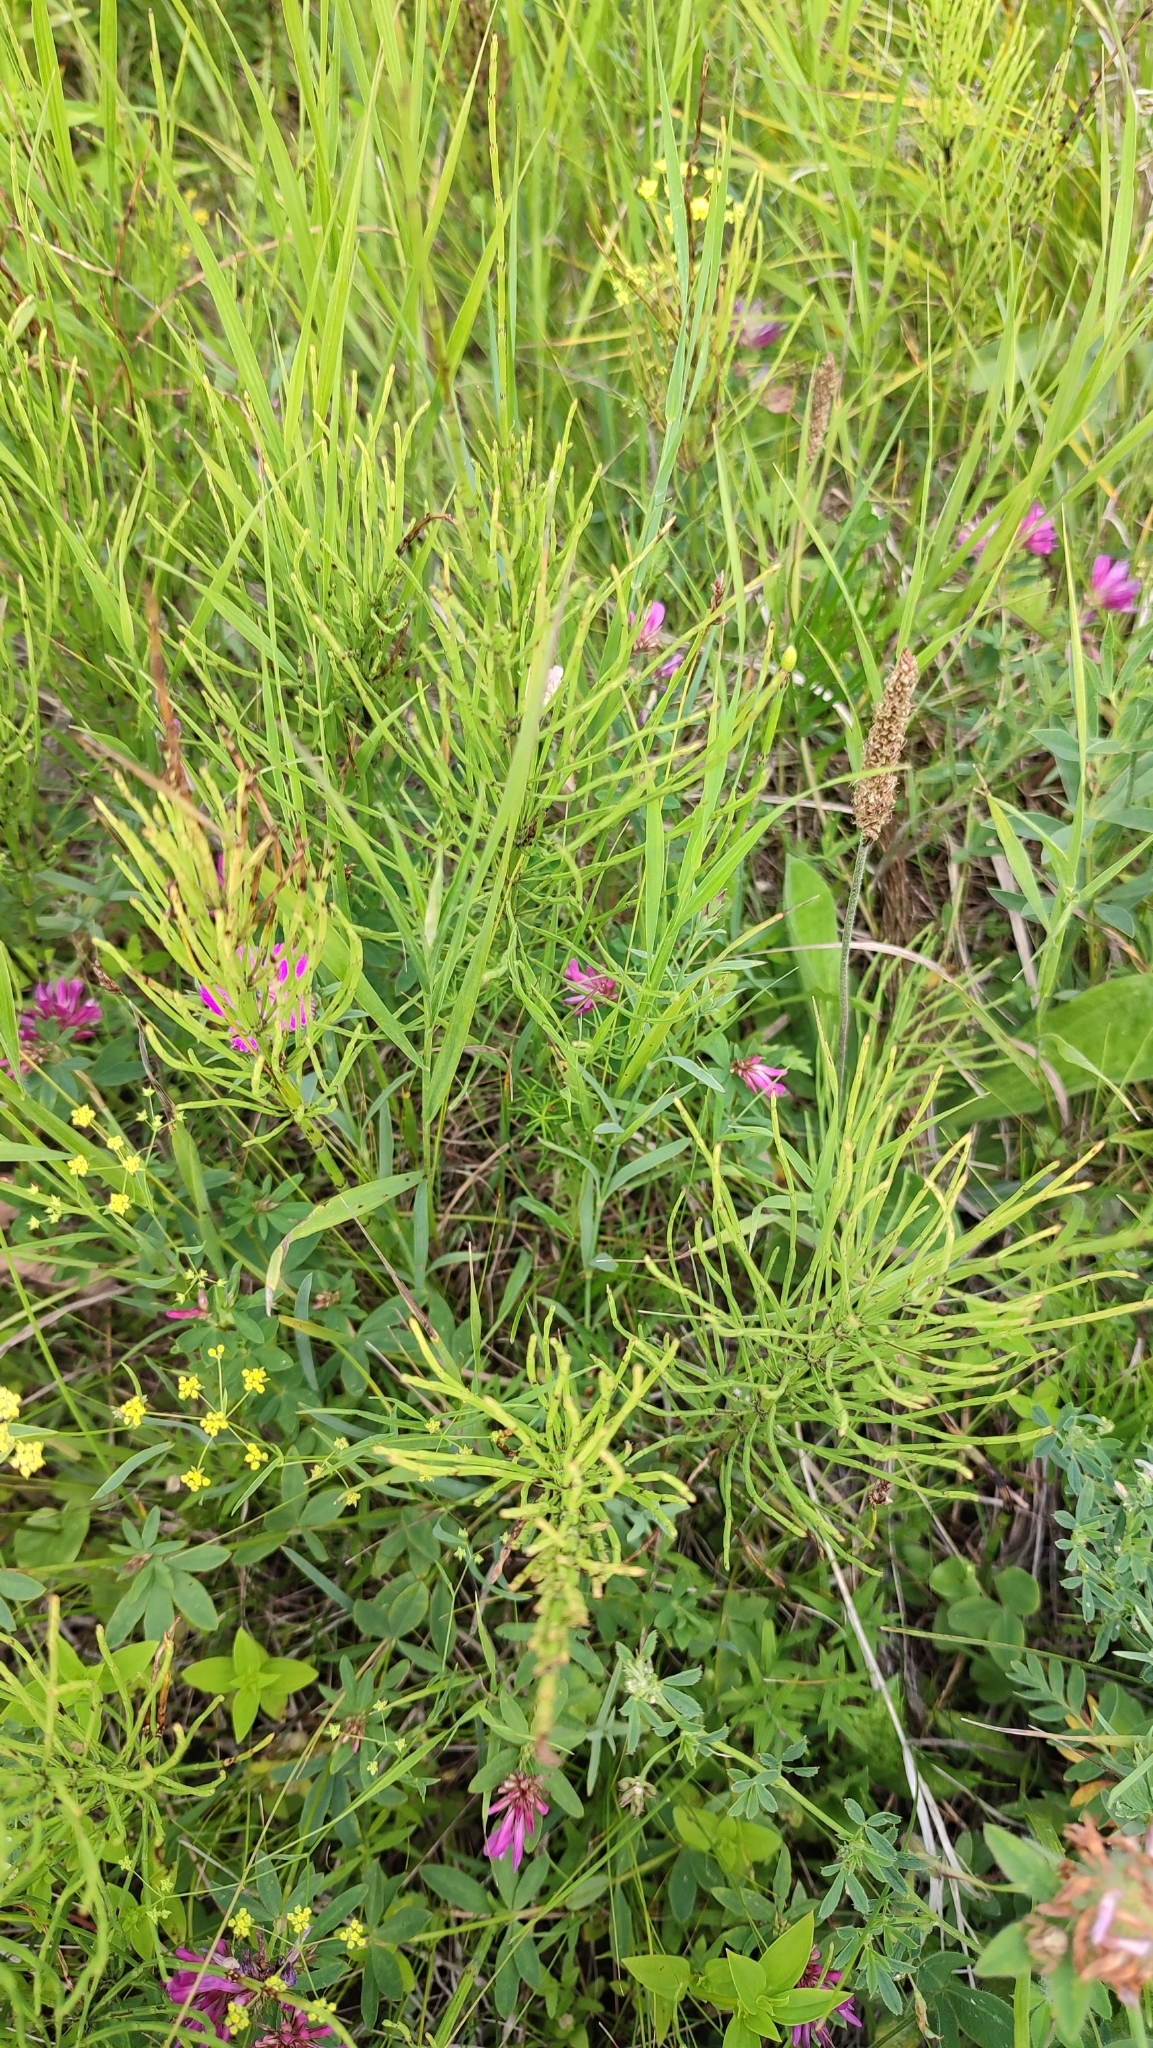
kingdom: Plantae
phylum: Tracheophyta
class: Polypodiopsida
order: Equisetales
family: Equisetaceae
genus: Equisetum
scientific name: Equisetum arvense
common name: Field horsetail
